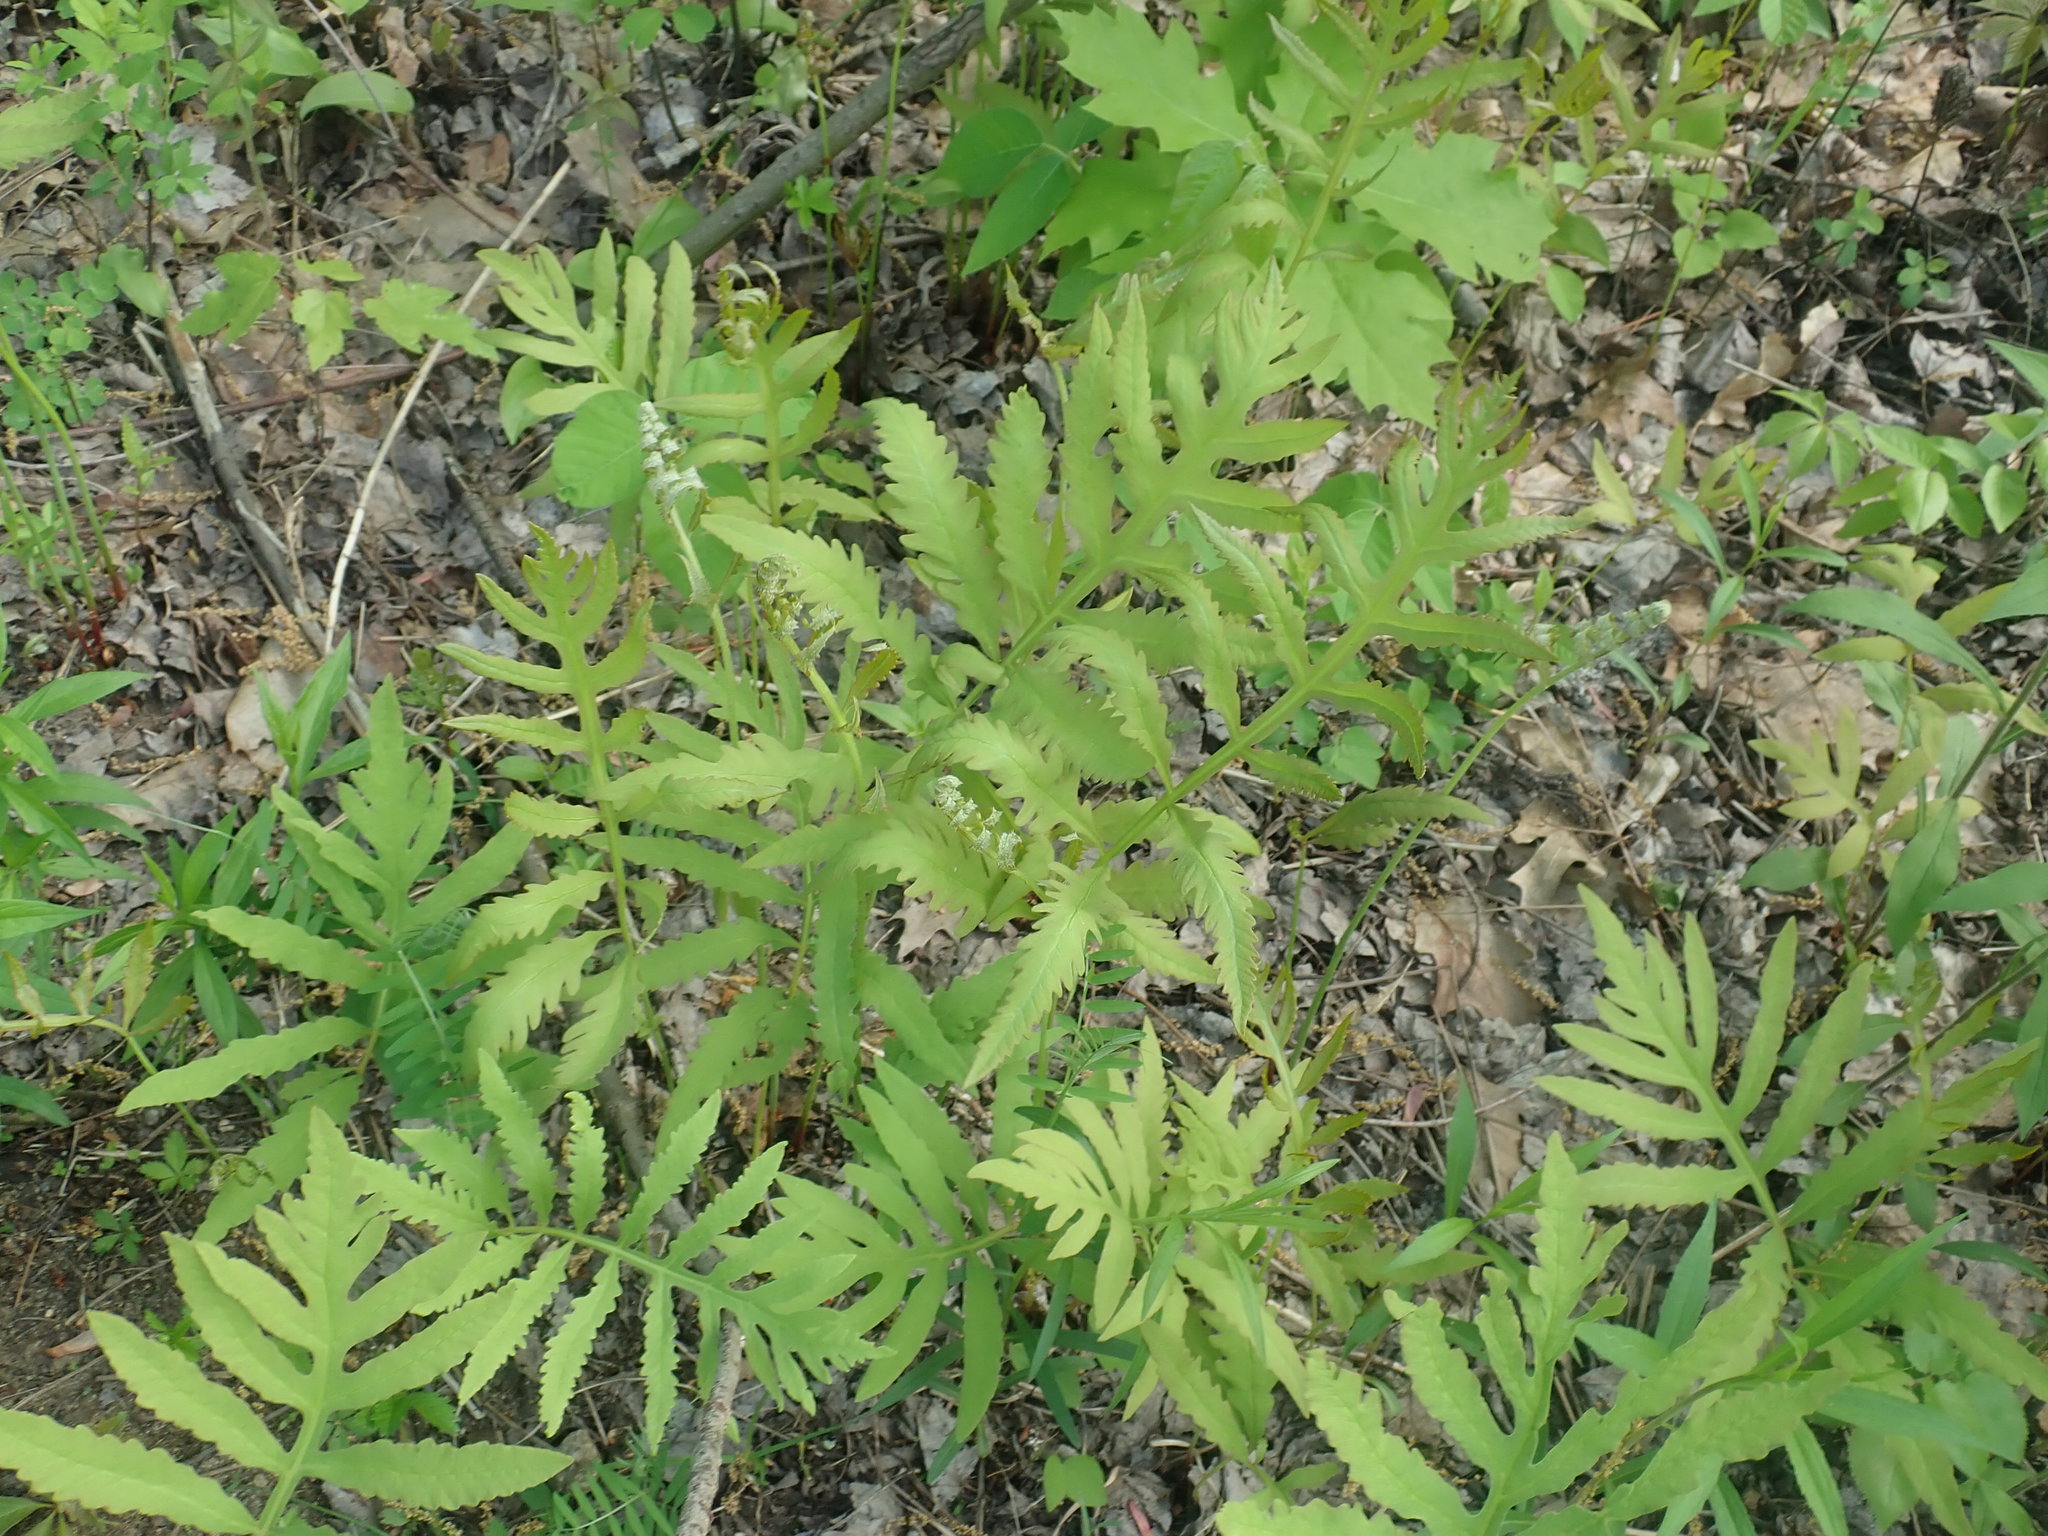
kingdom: Plantae
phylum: Tracheophyta
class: Polypodiopsida
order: Polypodiales
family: Onocleaceae
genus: Onoclea
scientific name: Onoclea sensibilis
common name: Sensitive fern
